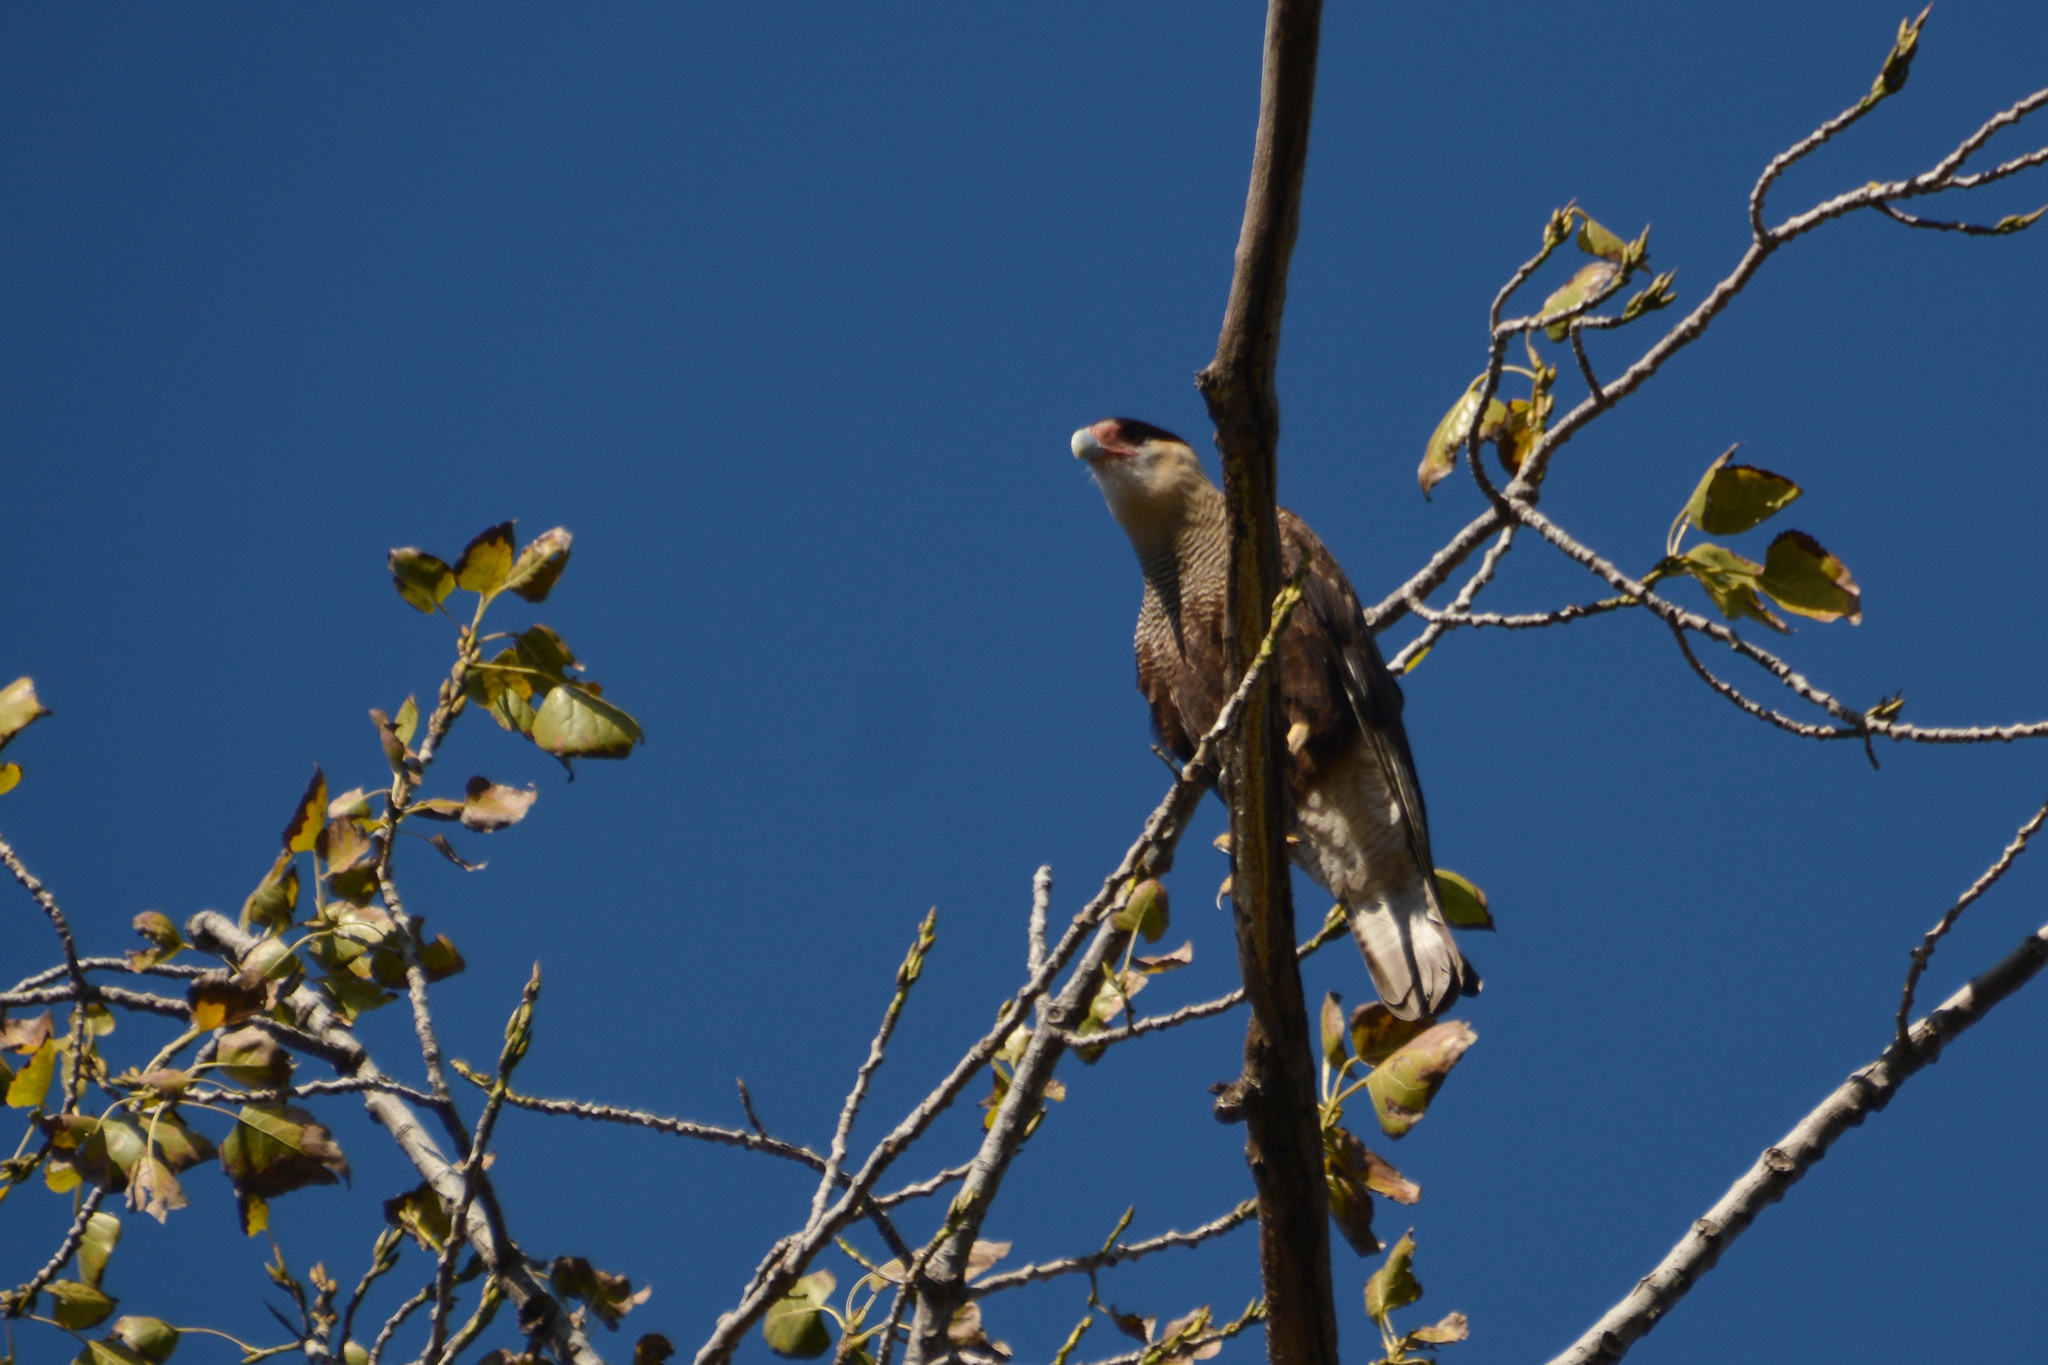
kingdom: Animalia
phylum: Chordata
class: Aves
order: Falconiformes
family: Falconidae
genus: Caracara
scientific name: Caracara plancus
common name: Southern caracara
